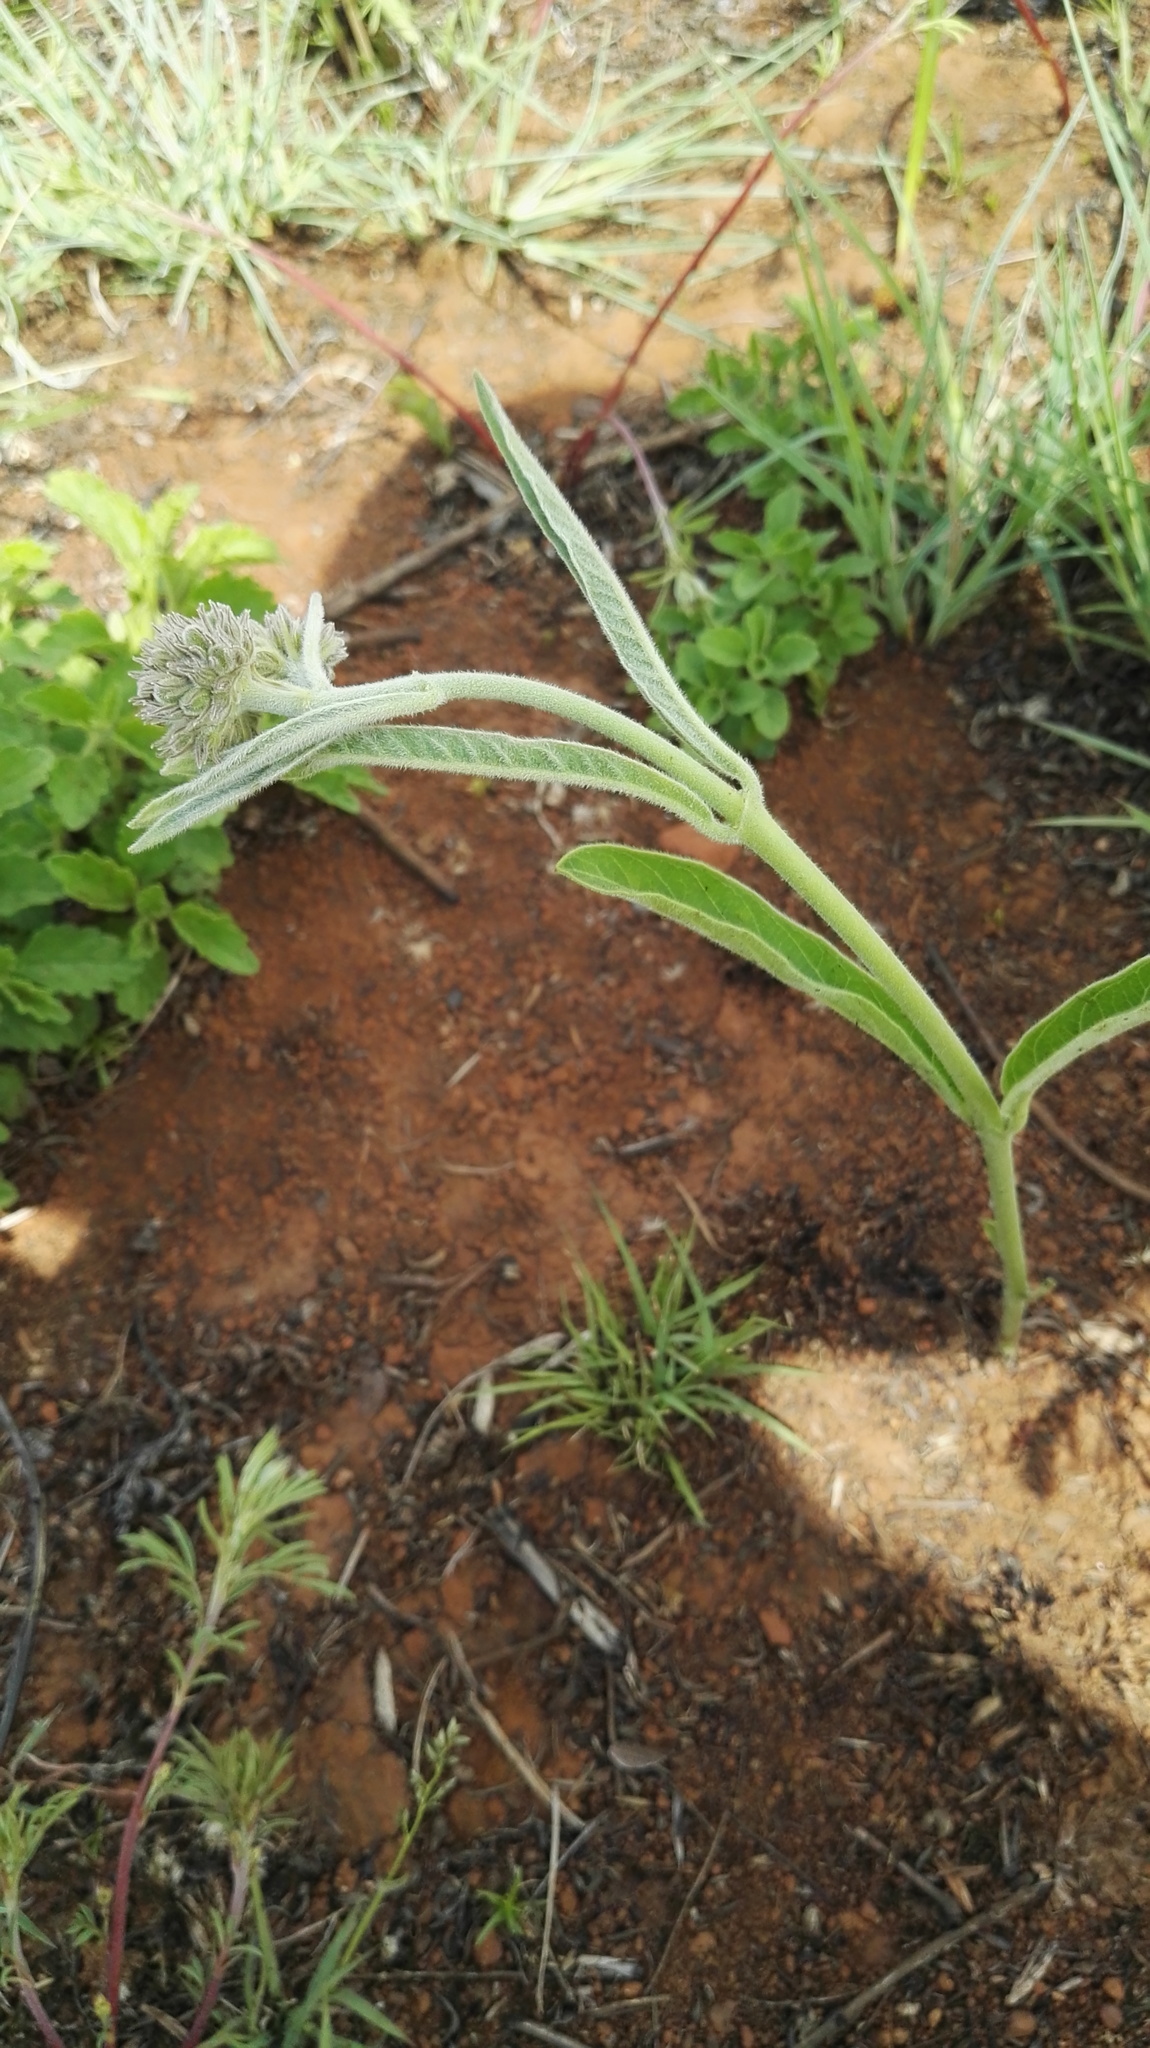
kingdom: Plantae
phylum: Tracheophyta
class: Magnoliopsida
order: Gentianales
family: Apocynaceae
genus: Raphionacme
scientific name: Raphionacme galpinii
